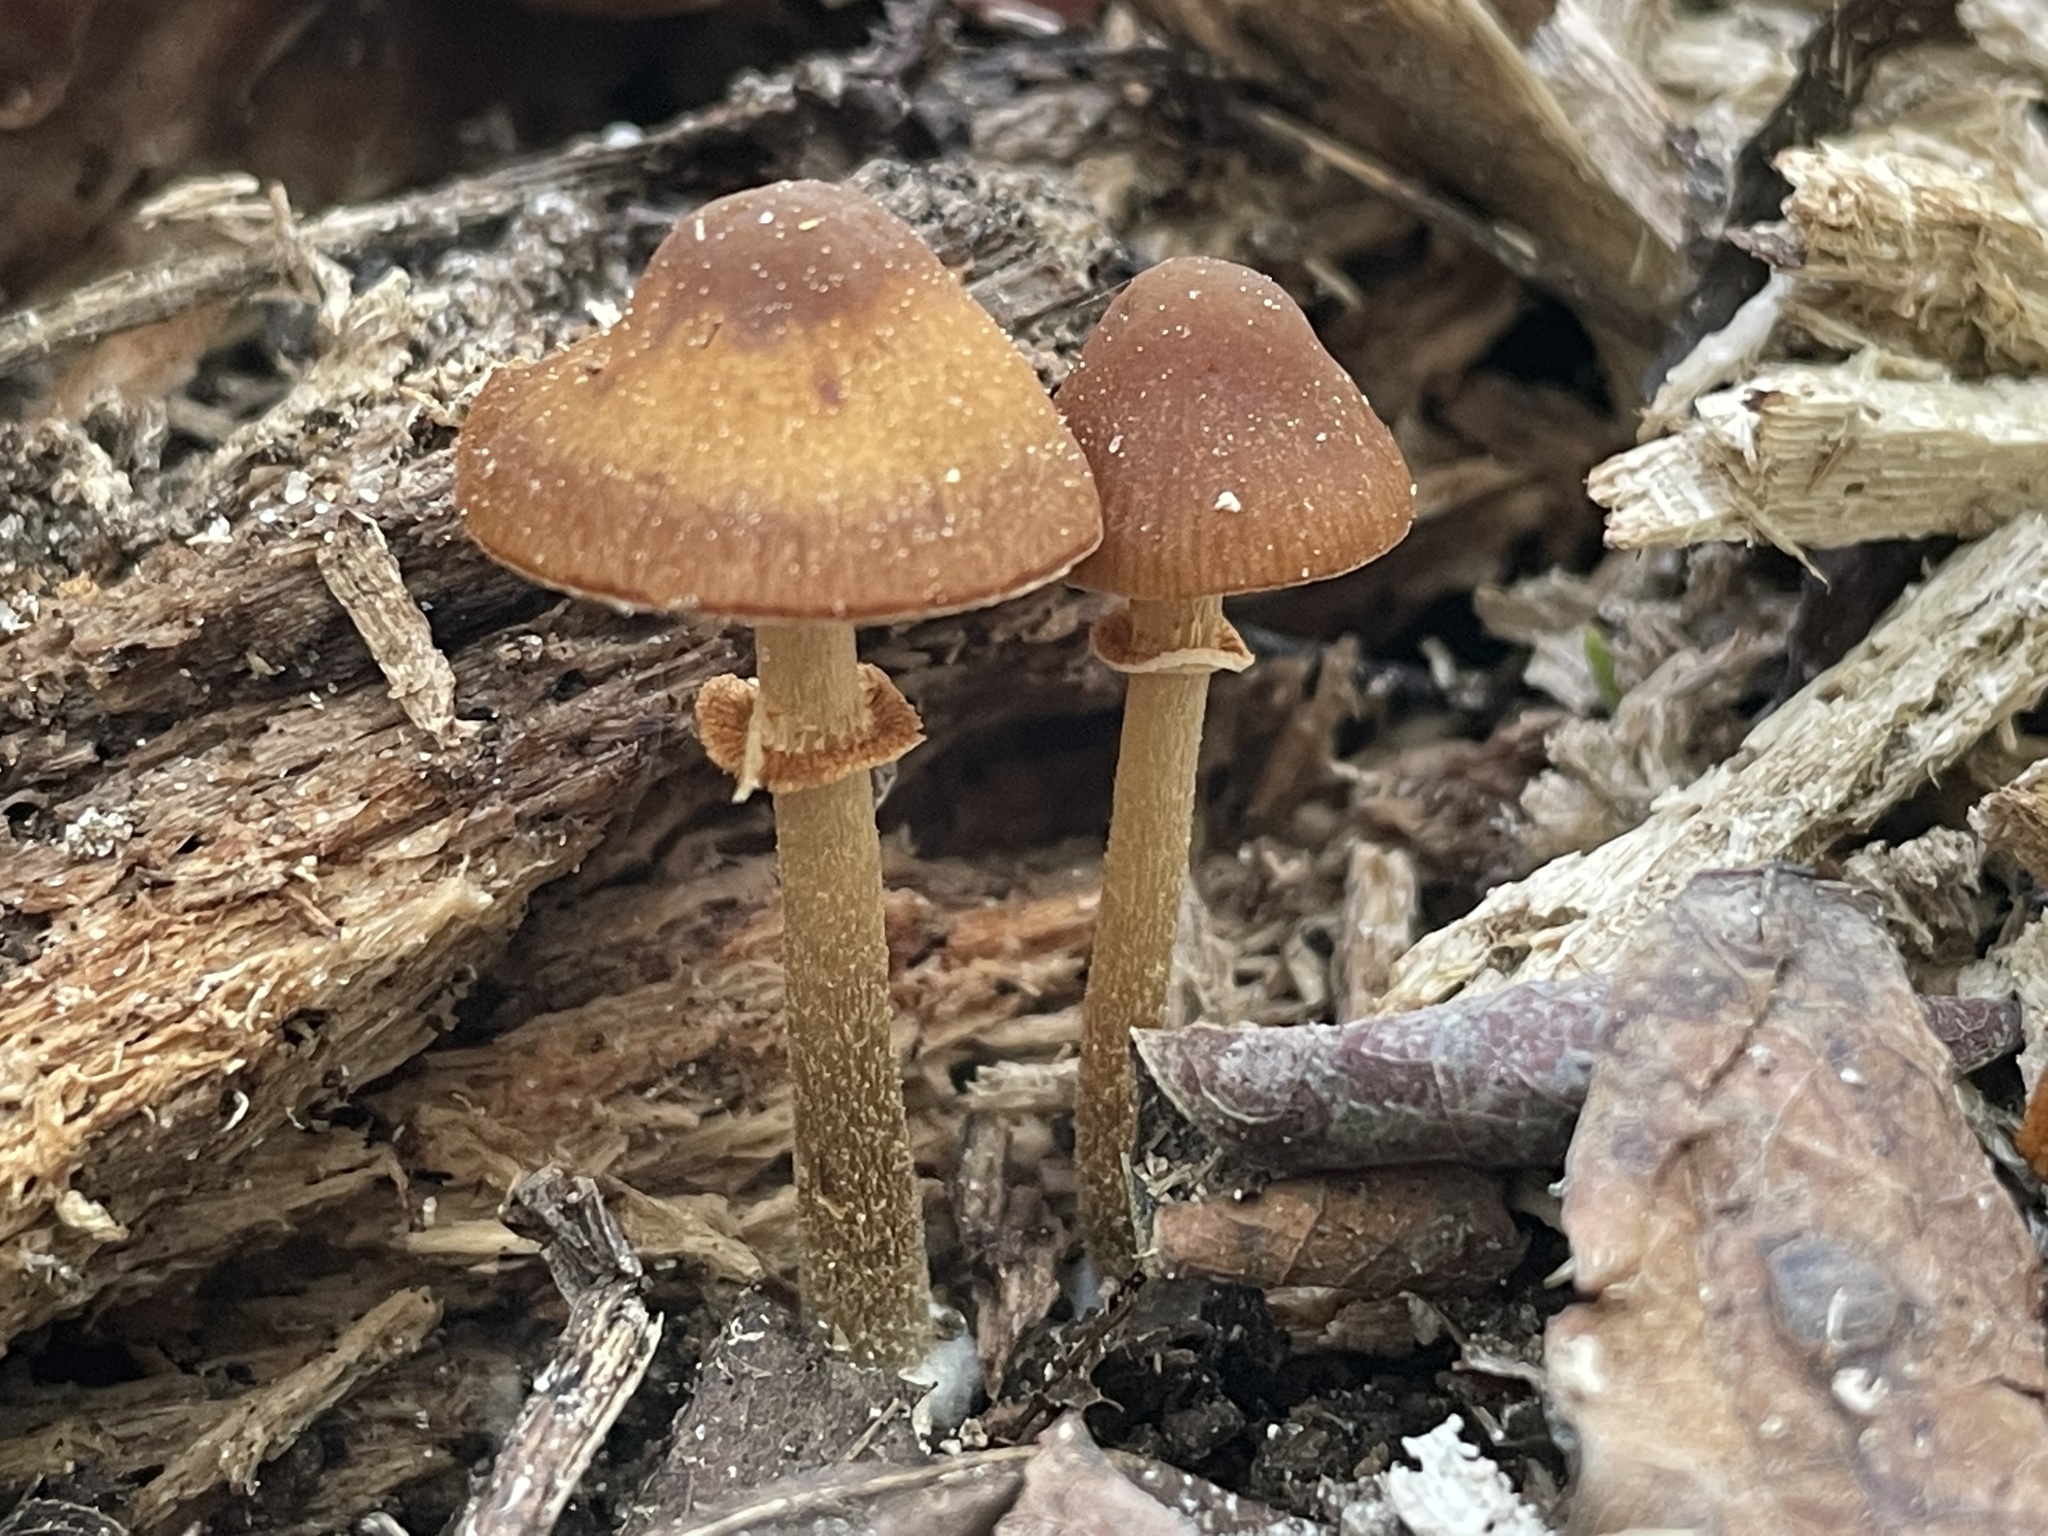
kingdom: Fungi
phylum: Basidiomycota
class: Agaricomycetes
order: Agaricales
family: Bolbitiaceae
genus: Conocybe
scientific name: Conocybe rugosa
